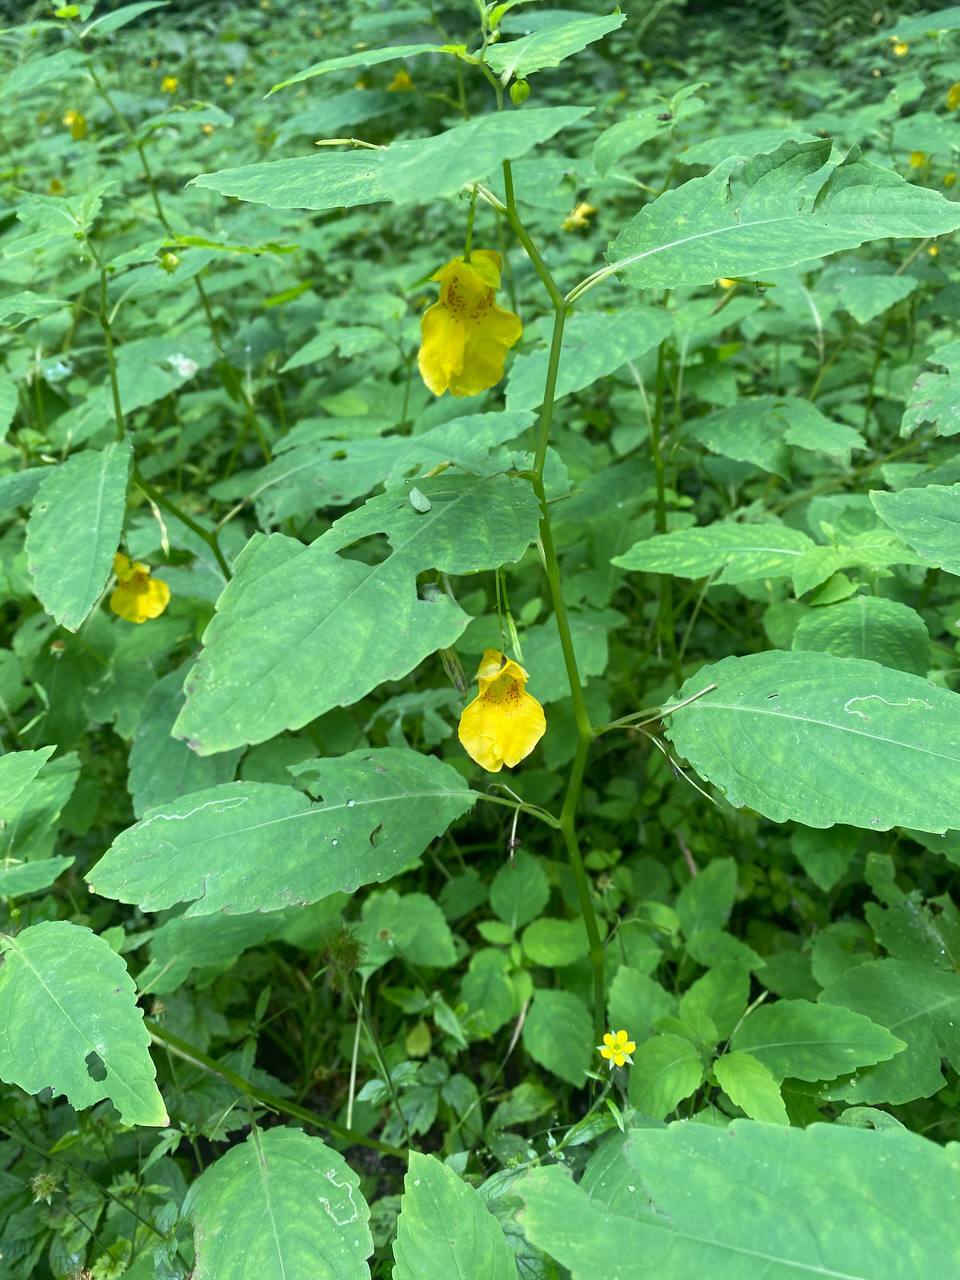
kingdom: Plantae
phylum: Tracheophyta
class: Magnoliopsida
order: Ericales
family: Balsaminaceae
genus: Impatiens
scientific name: Impatiens noli-tangere
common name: Touch-me-not balsam
